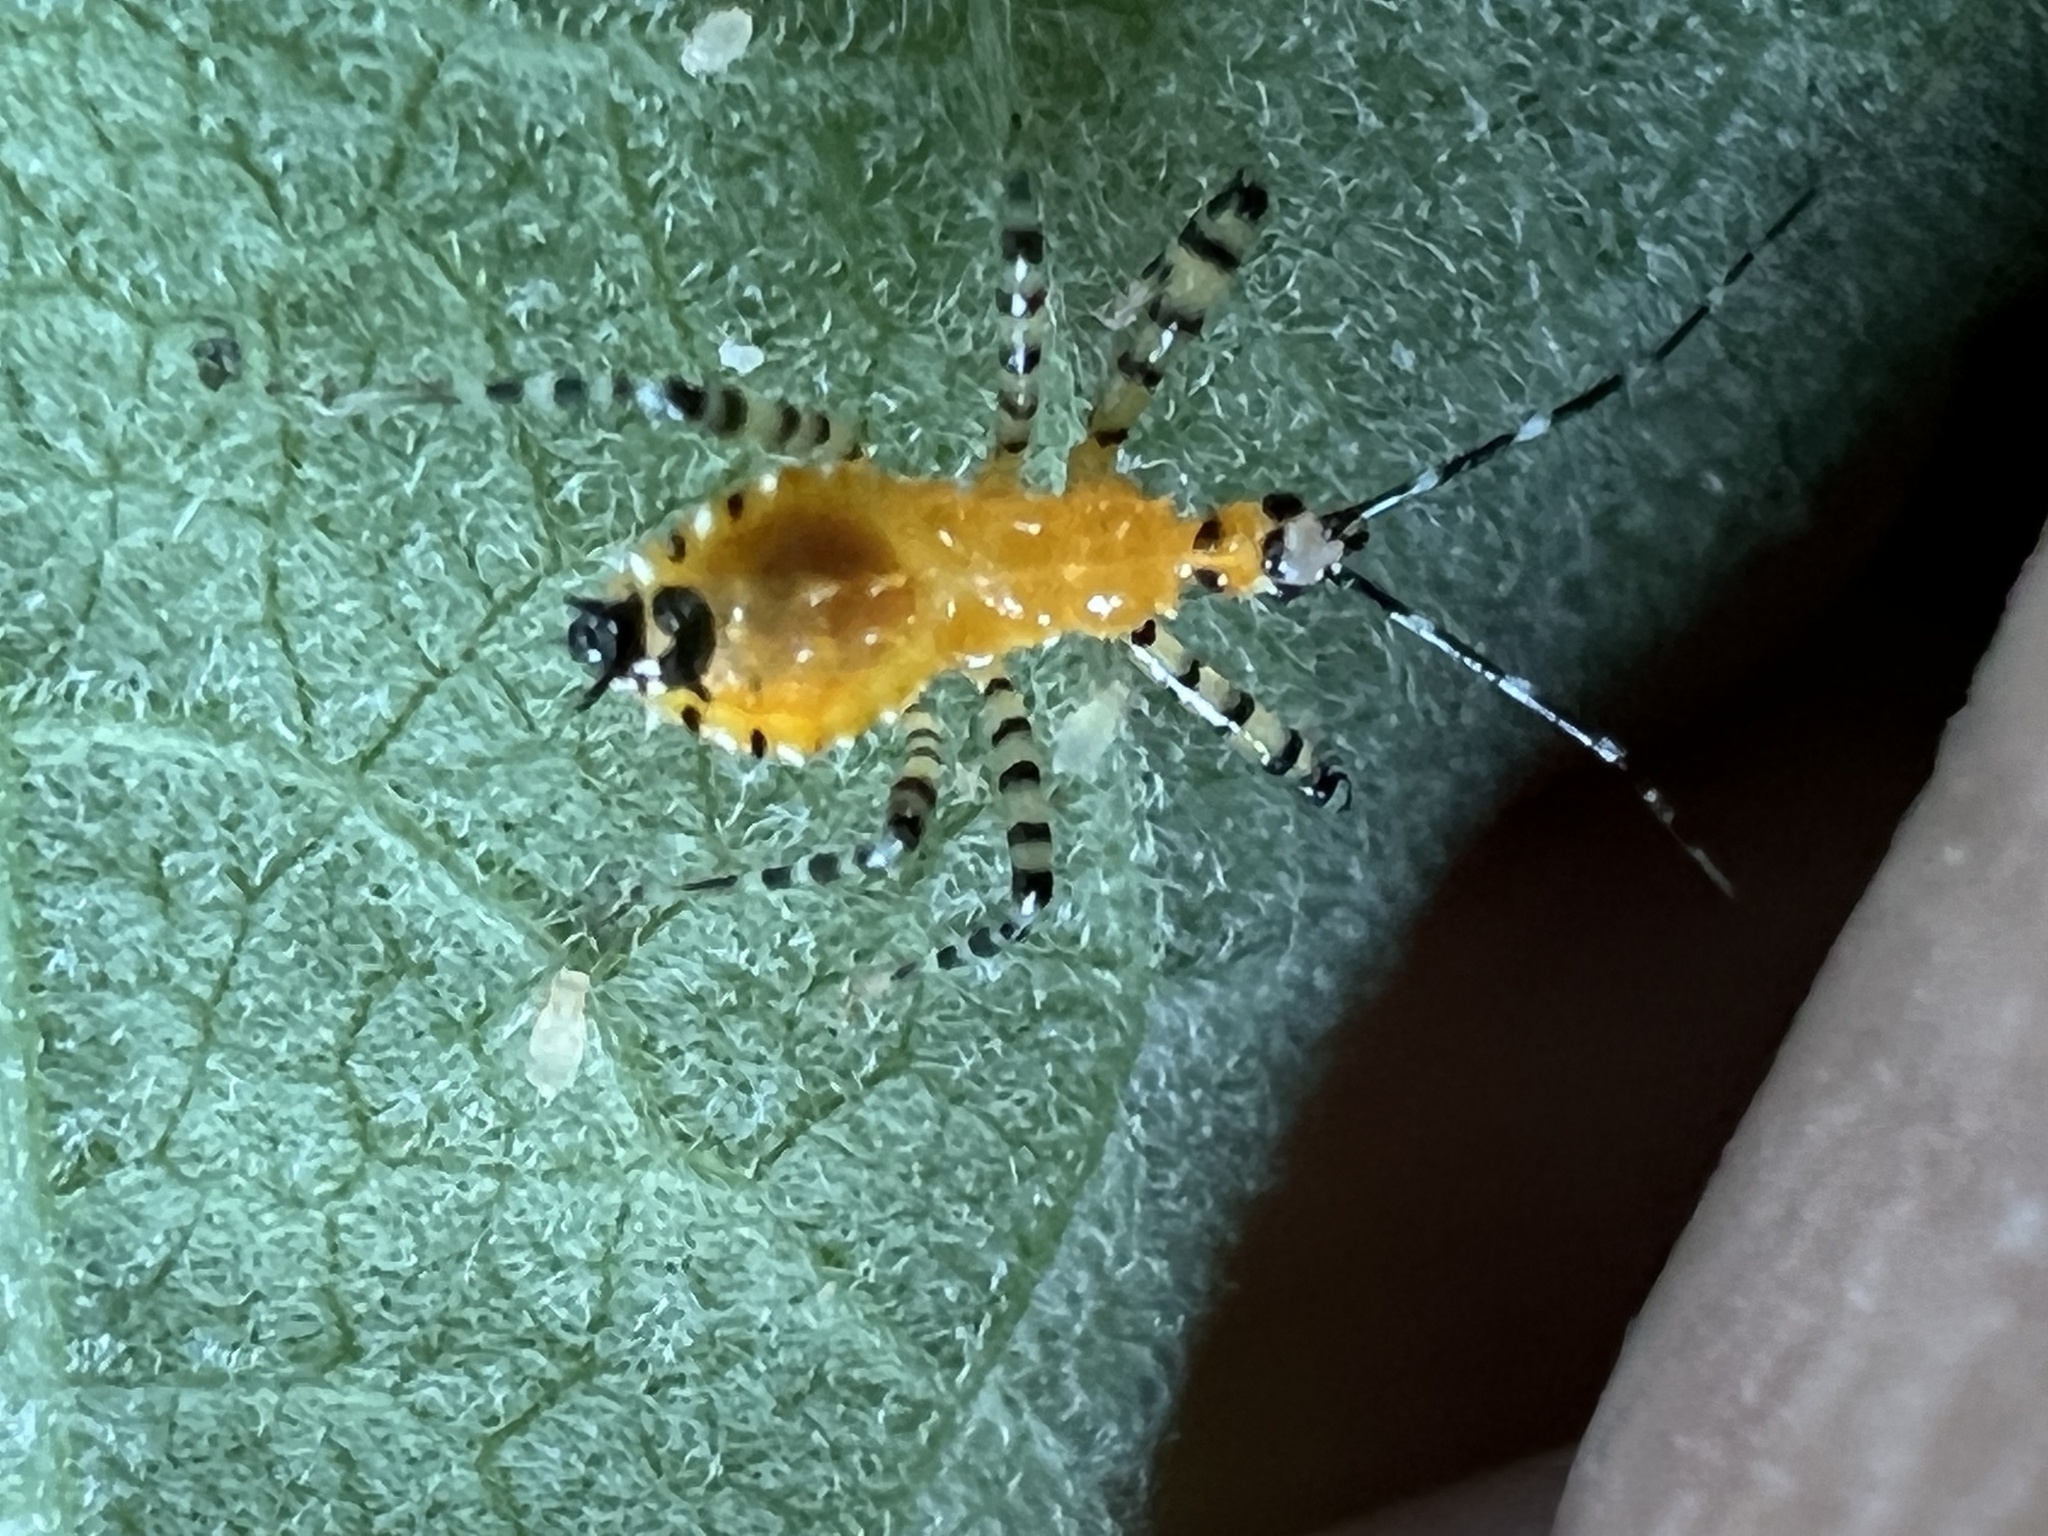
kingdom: Animalia
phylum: Arthropoda
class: Insecta
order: Hemiptera
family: Reduviidae
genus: Pselliopus
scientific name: Pselliopus barberi
